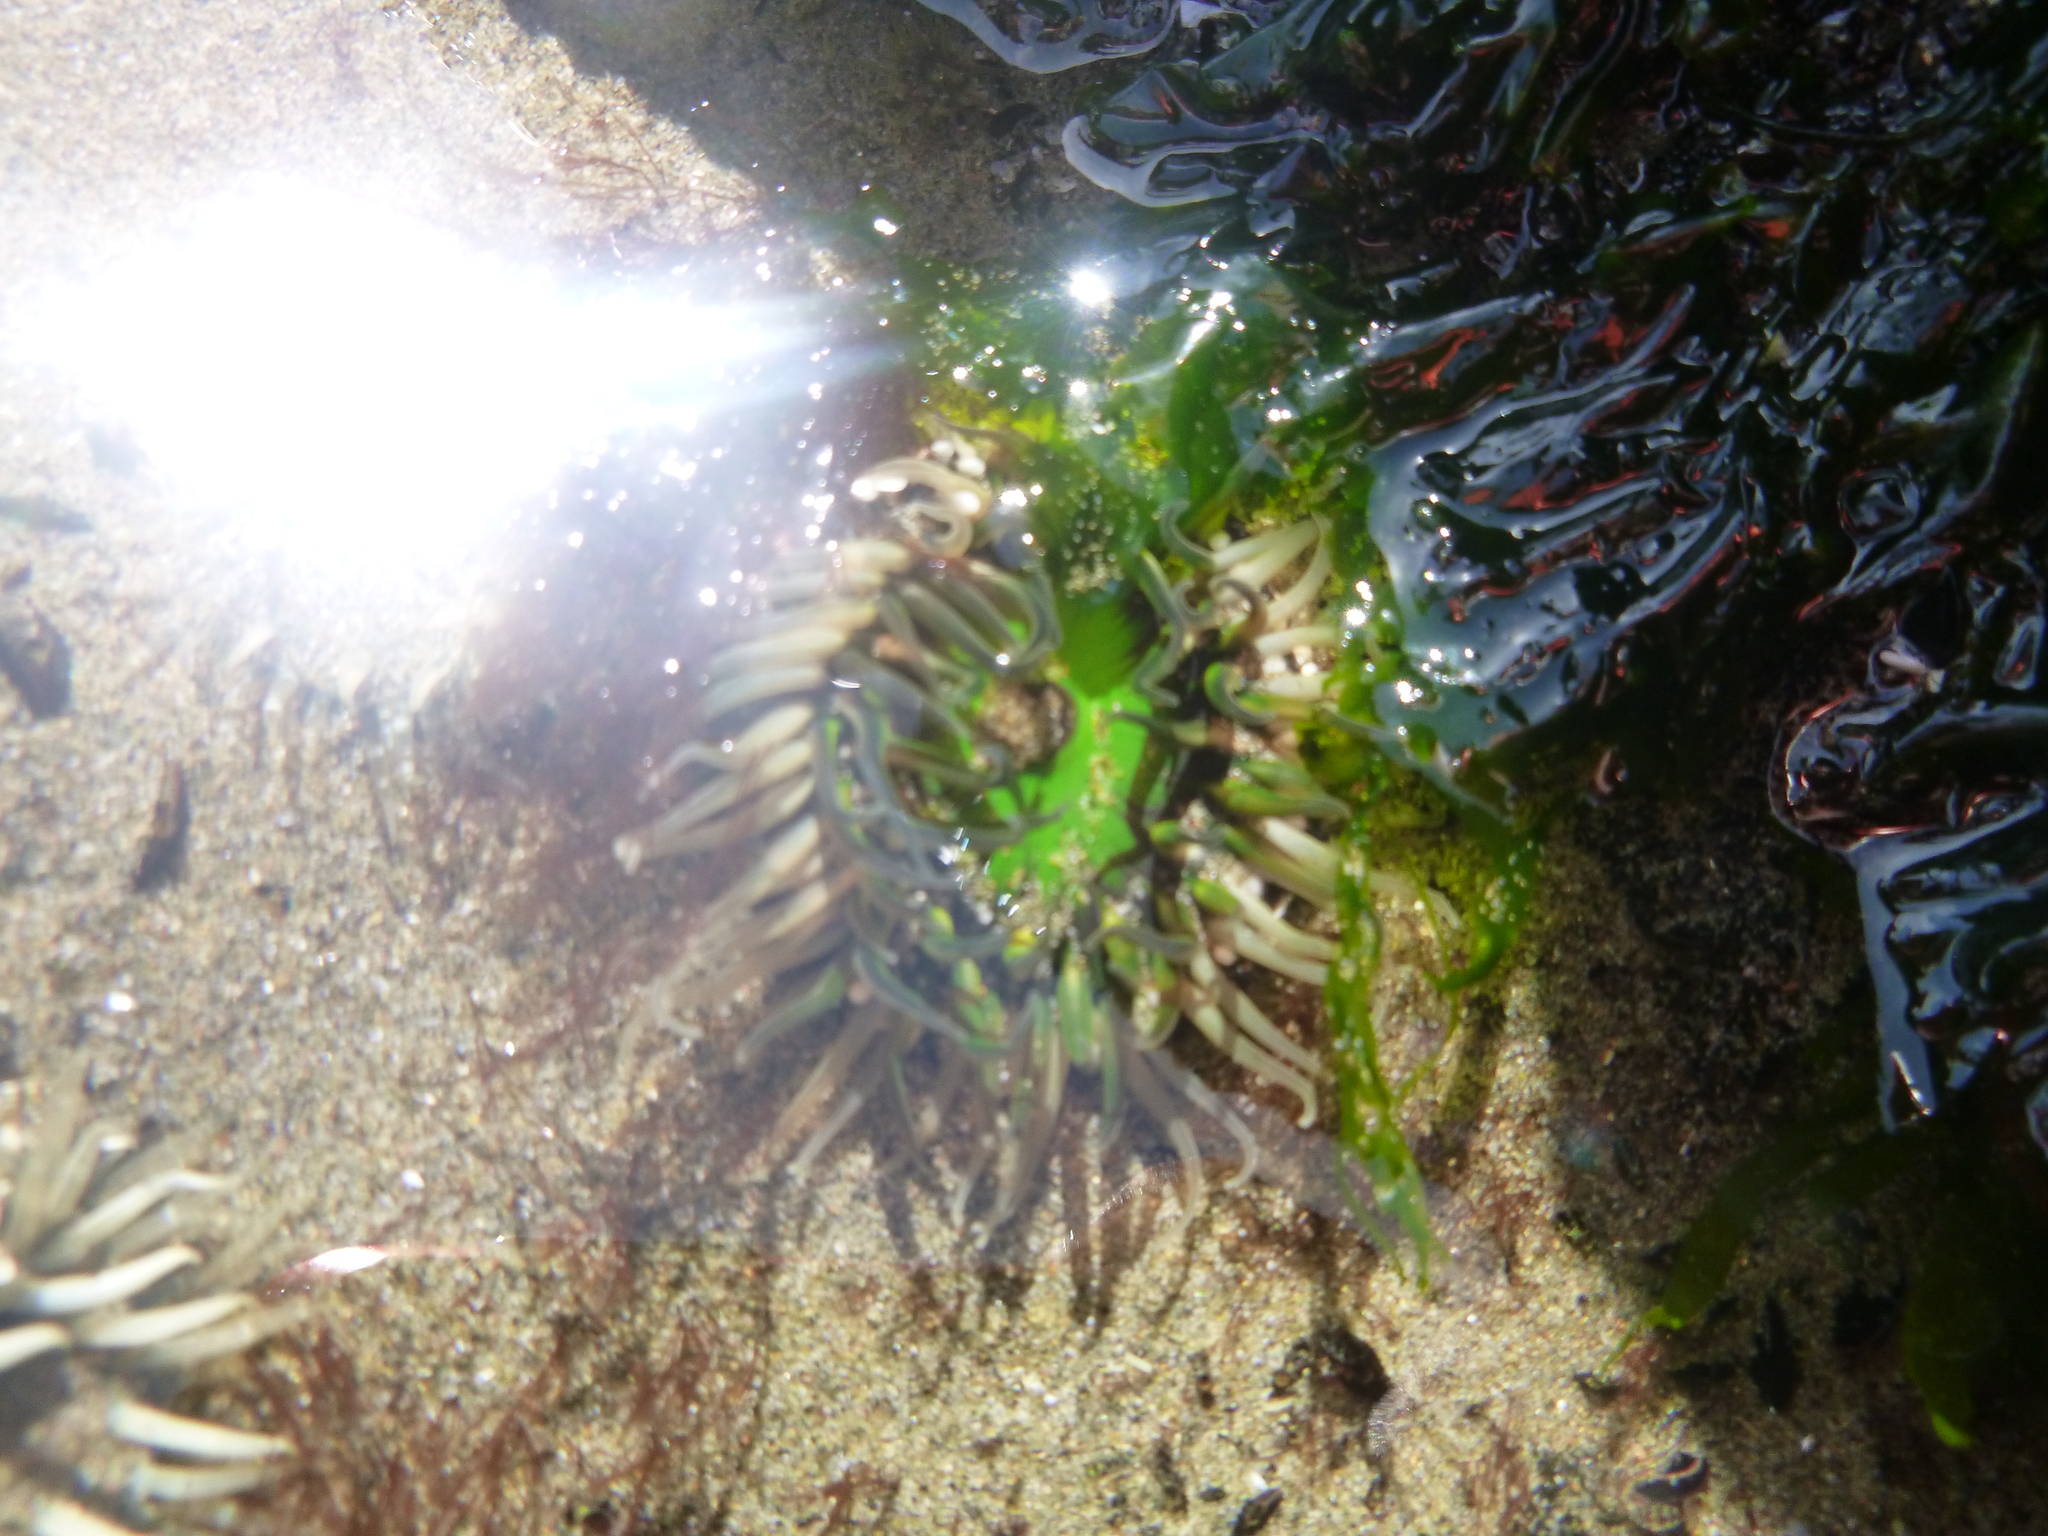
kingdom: Animalia
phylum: Cnidaria
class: Anthozoa
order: Actiniaria
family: Actiniidae
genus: Oulactis
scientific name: Oulactis magna
